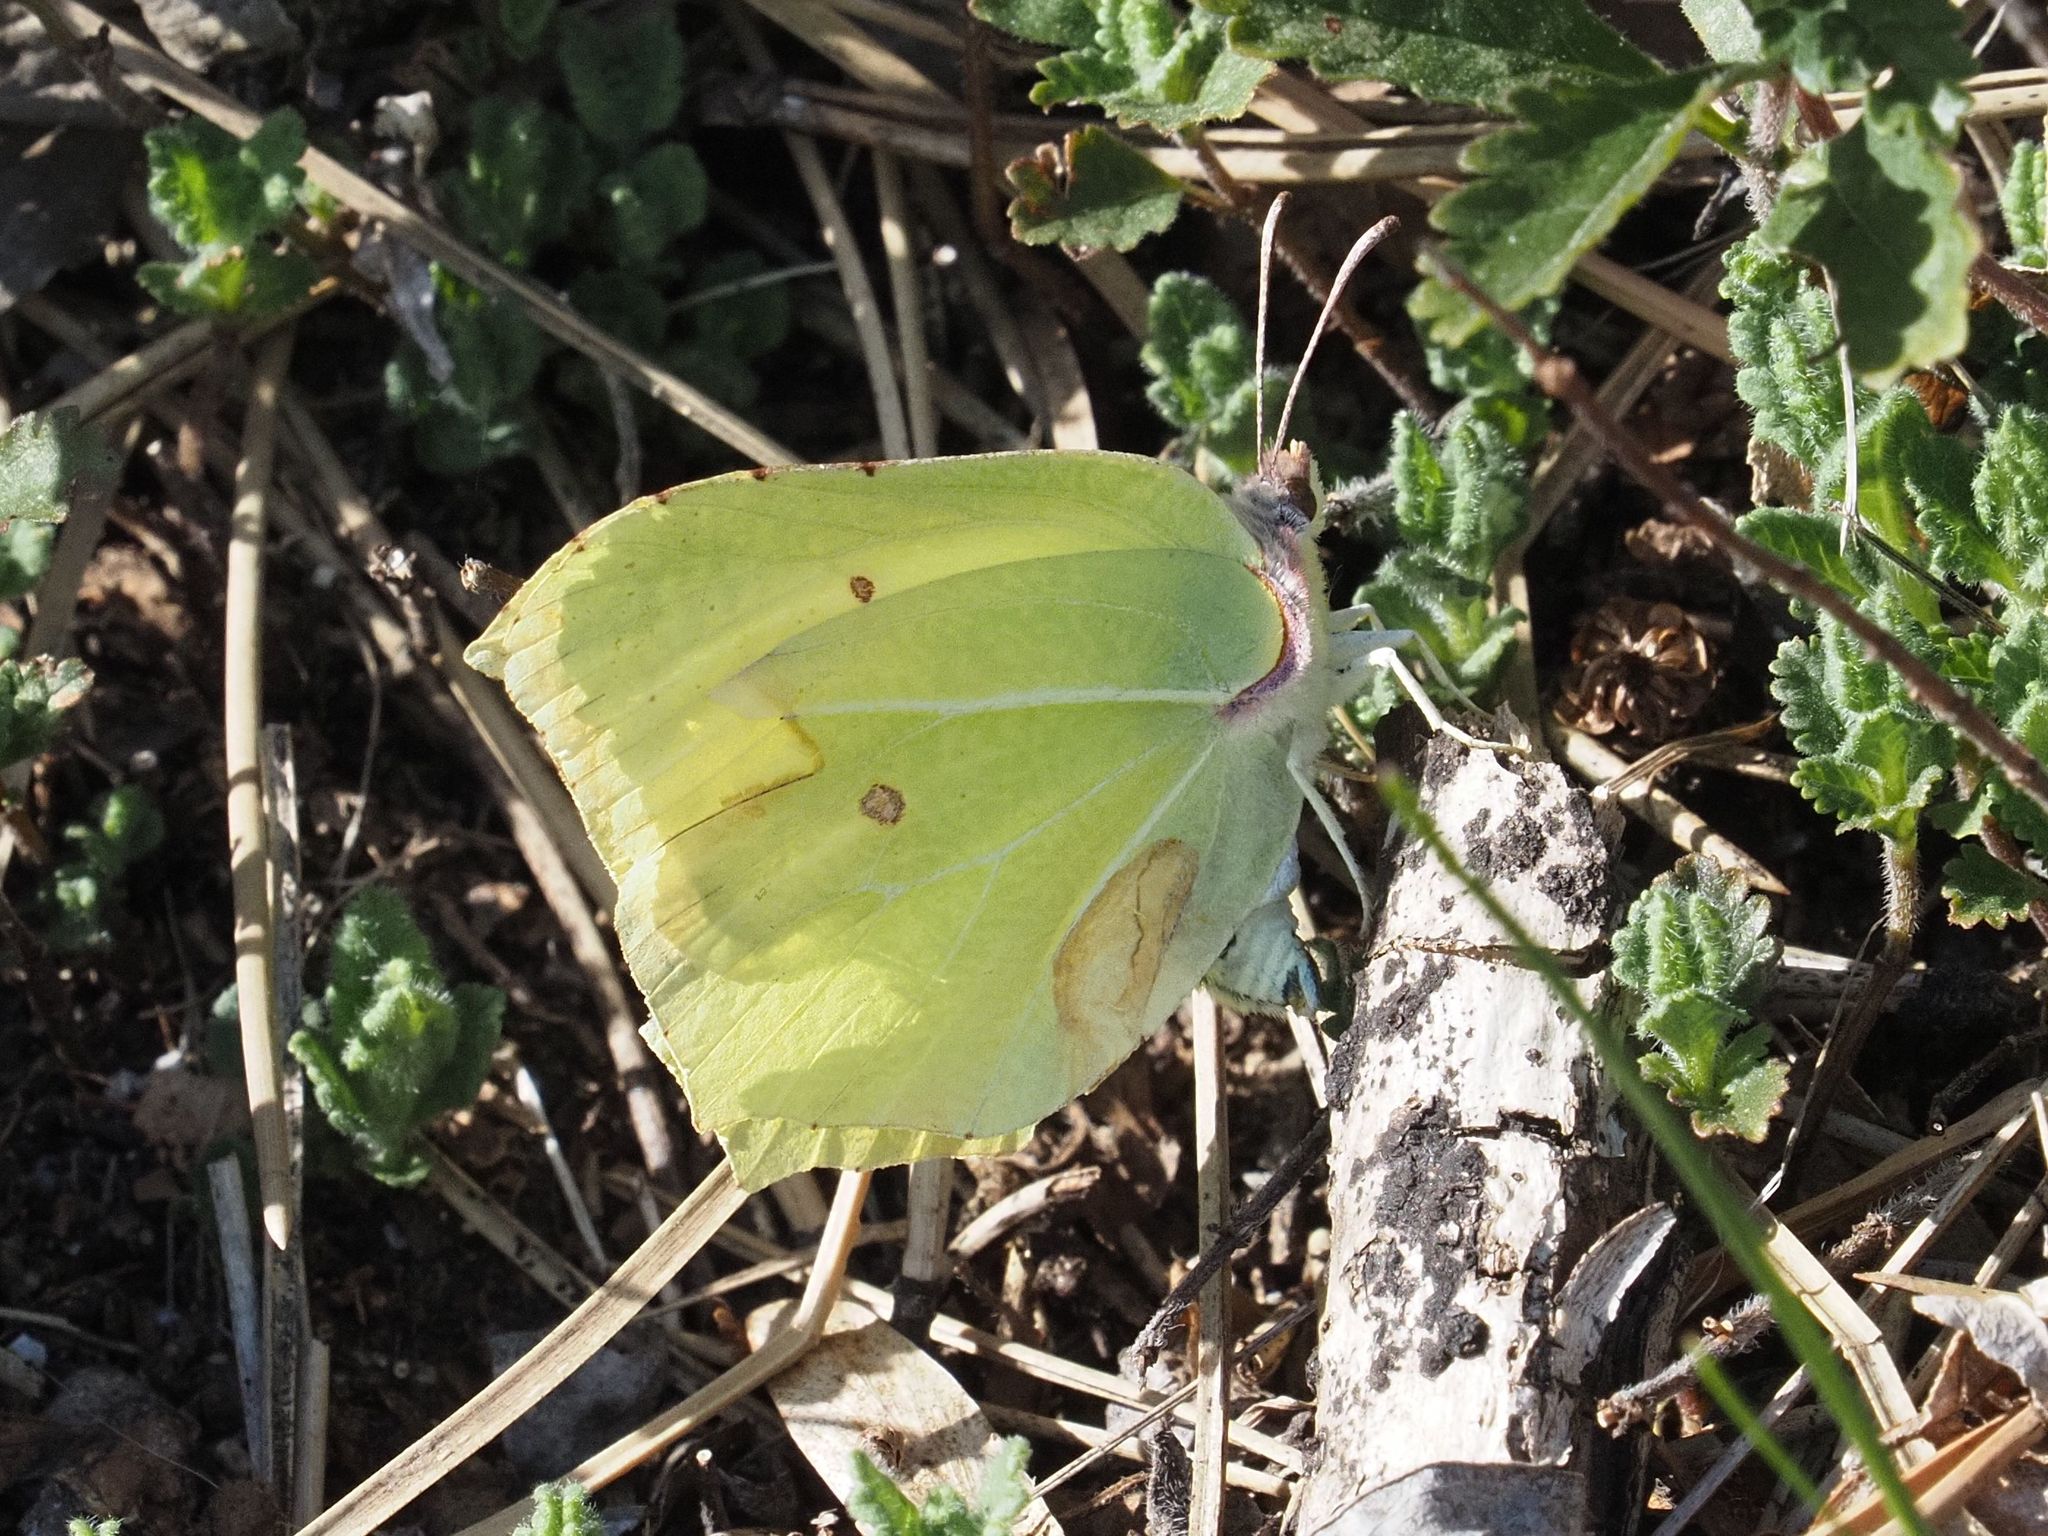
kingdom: Animalia
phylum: Arthropoda
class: Insecta
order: Lepidoptera
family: Pieridae
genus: Gonepteryx
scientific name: Gonepteryx rhamni
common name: Brimstone
